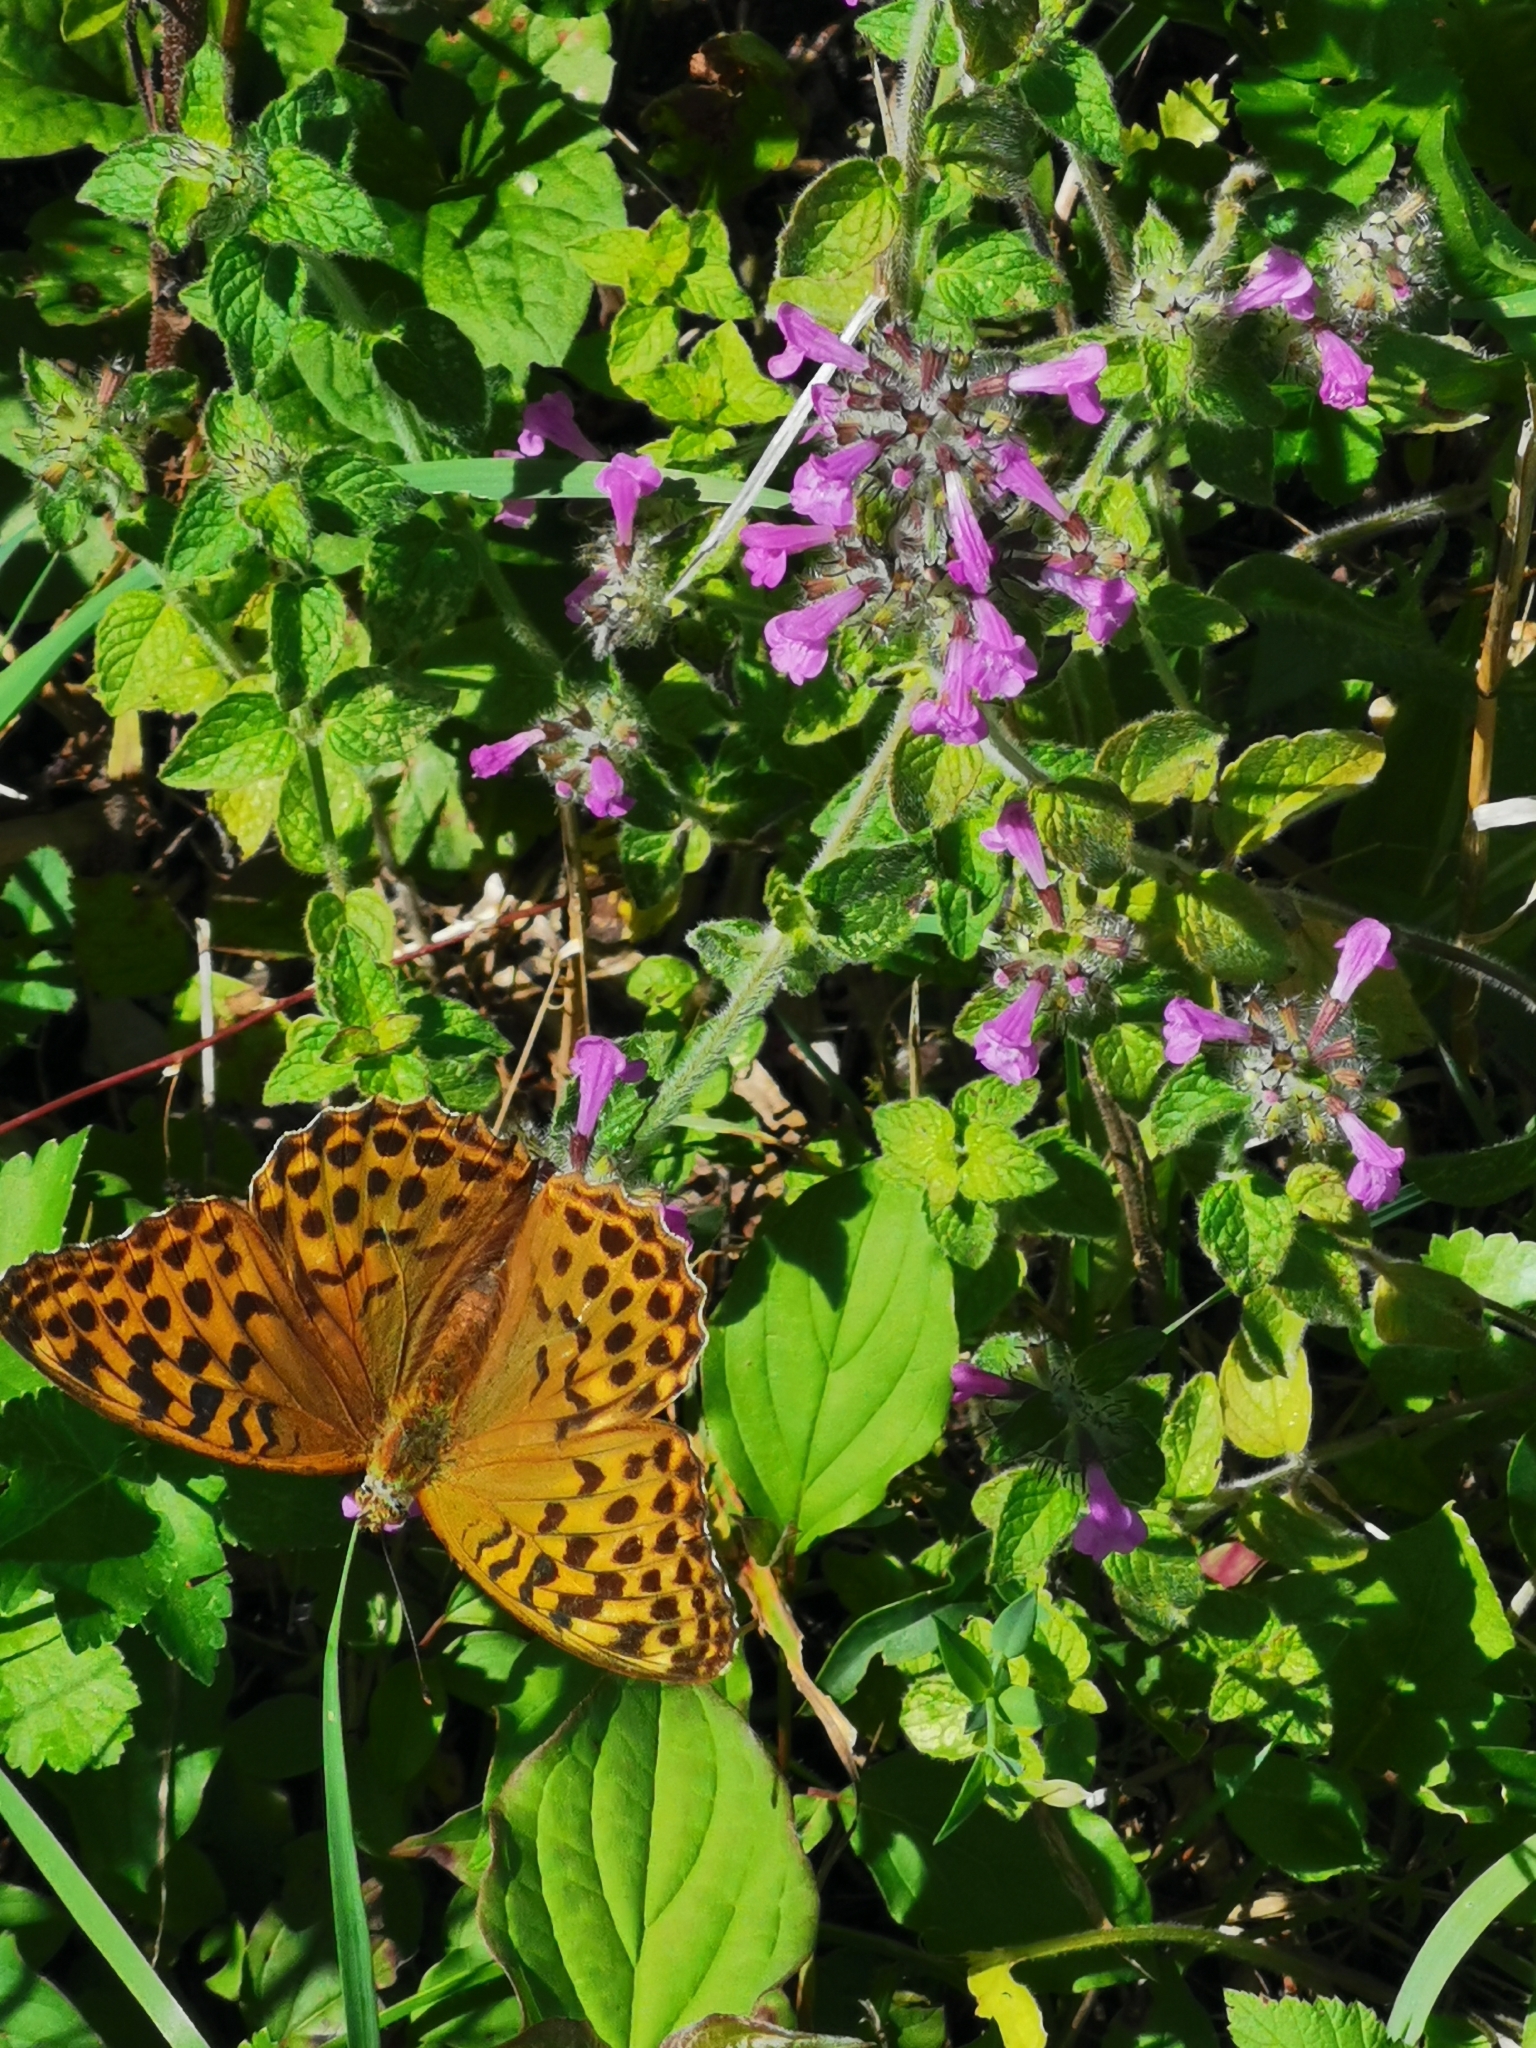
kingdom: Animalia
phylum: Arthropoda
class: Insecta
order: Lepidoptera
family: Nymphalidae
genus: Argynnis
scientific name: Argynnis paphia
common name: Silver-washed fritillary
